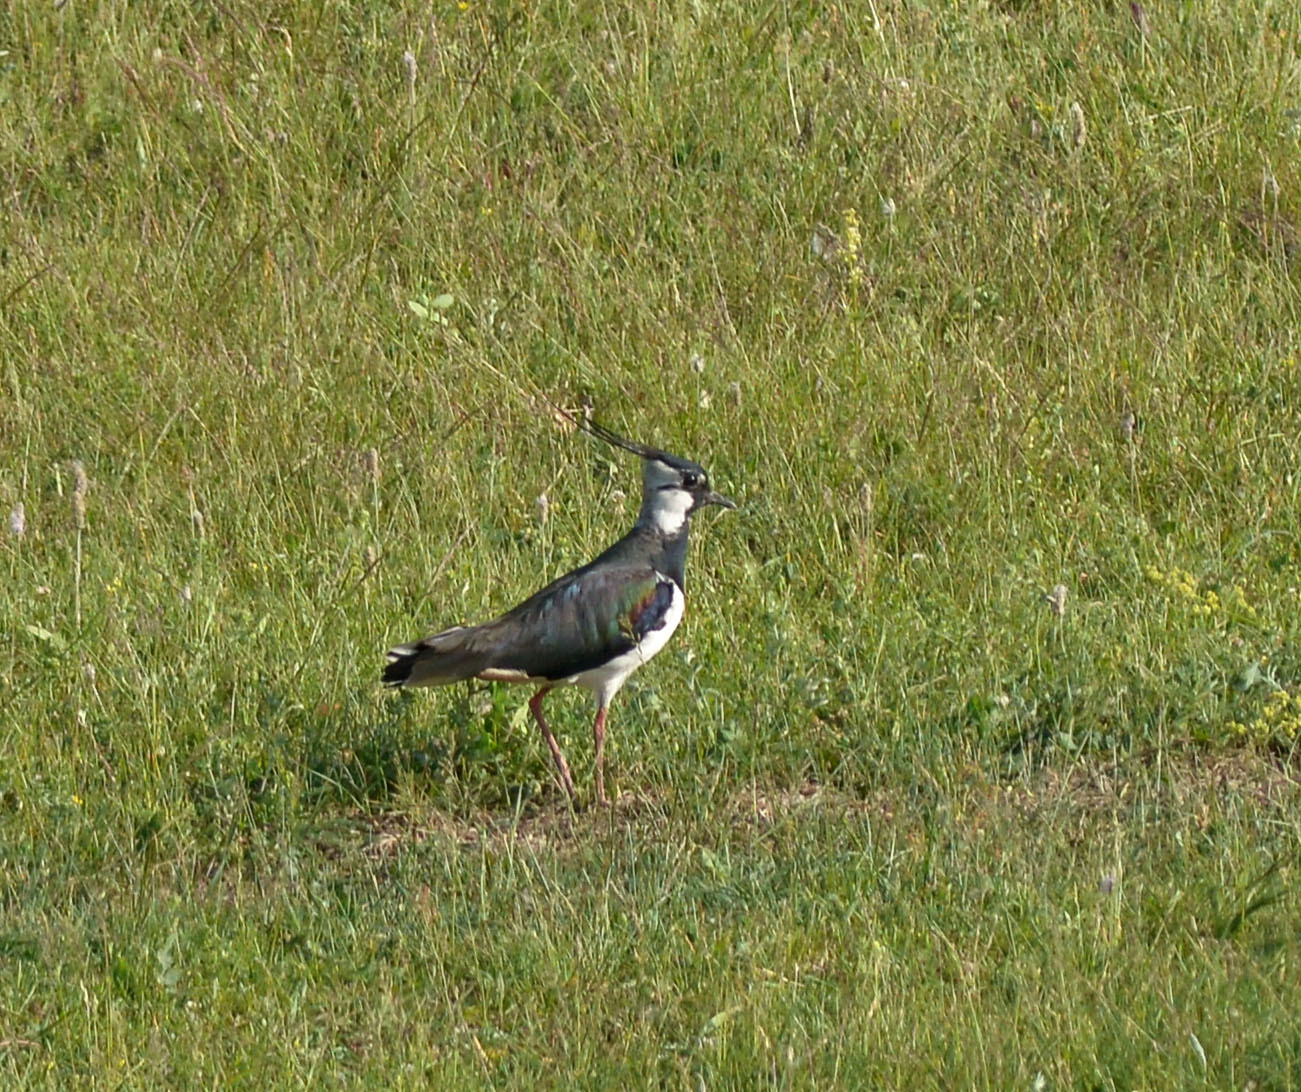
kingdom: Animalia
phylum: Chordata
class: Aves
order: Charadriiformes
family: Charadriidae
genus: Vanellus
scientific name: Vanellus vanellus
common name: Northern lapwing
